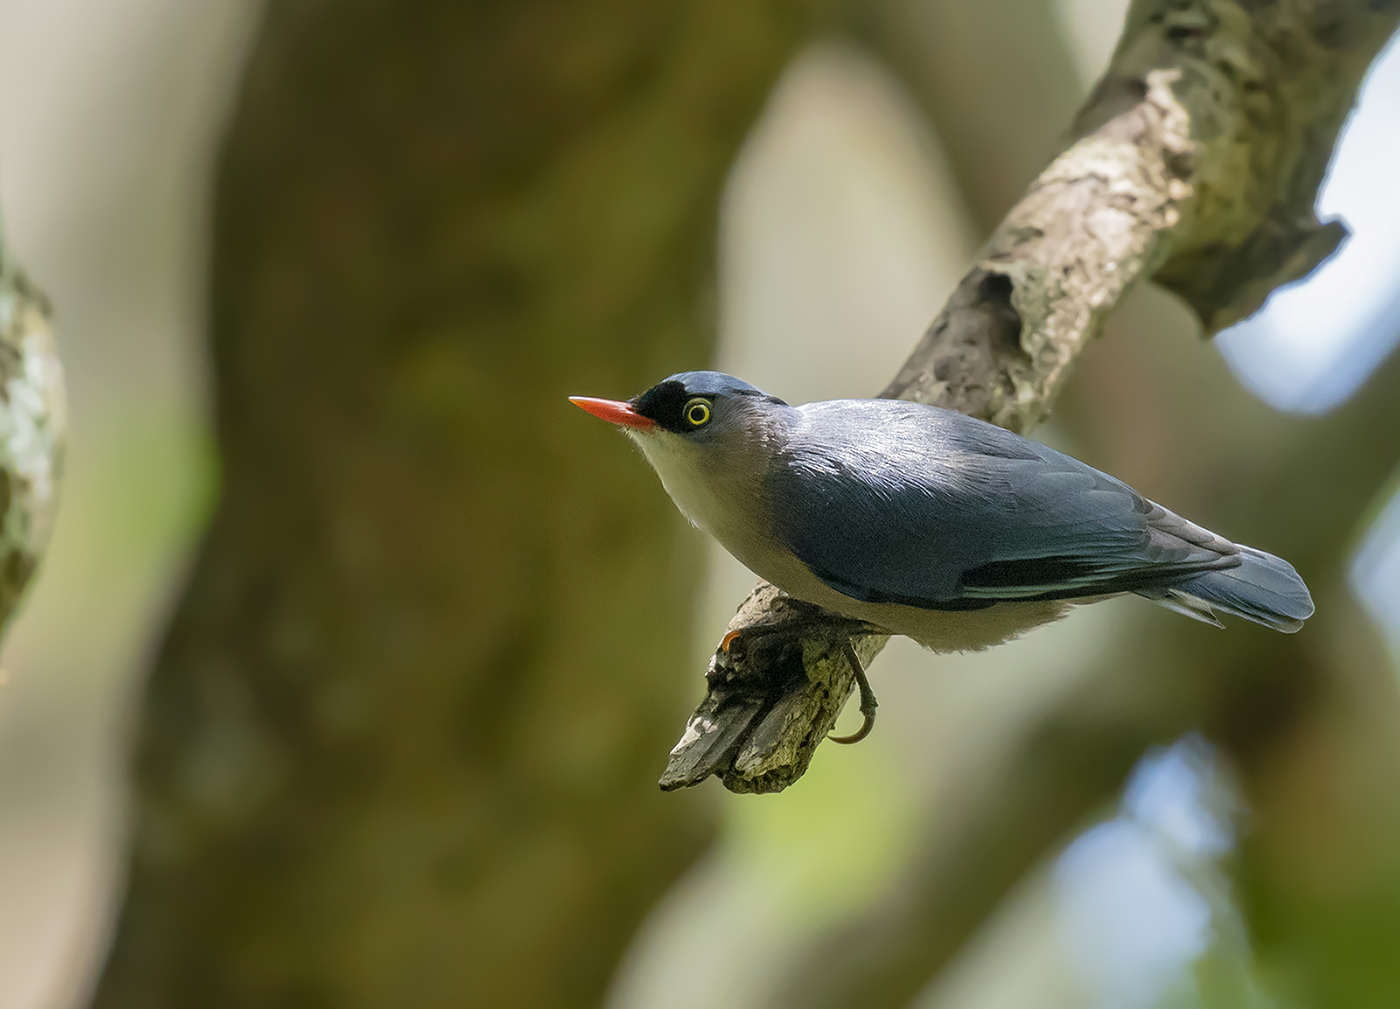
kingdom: Animalia
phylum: Chordata
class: Aves
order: Passeriformes
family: Sittidae
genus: Sitta
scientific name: Sitta frontalis
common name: Velvet-fronted nuthatch
